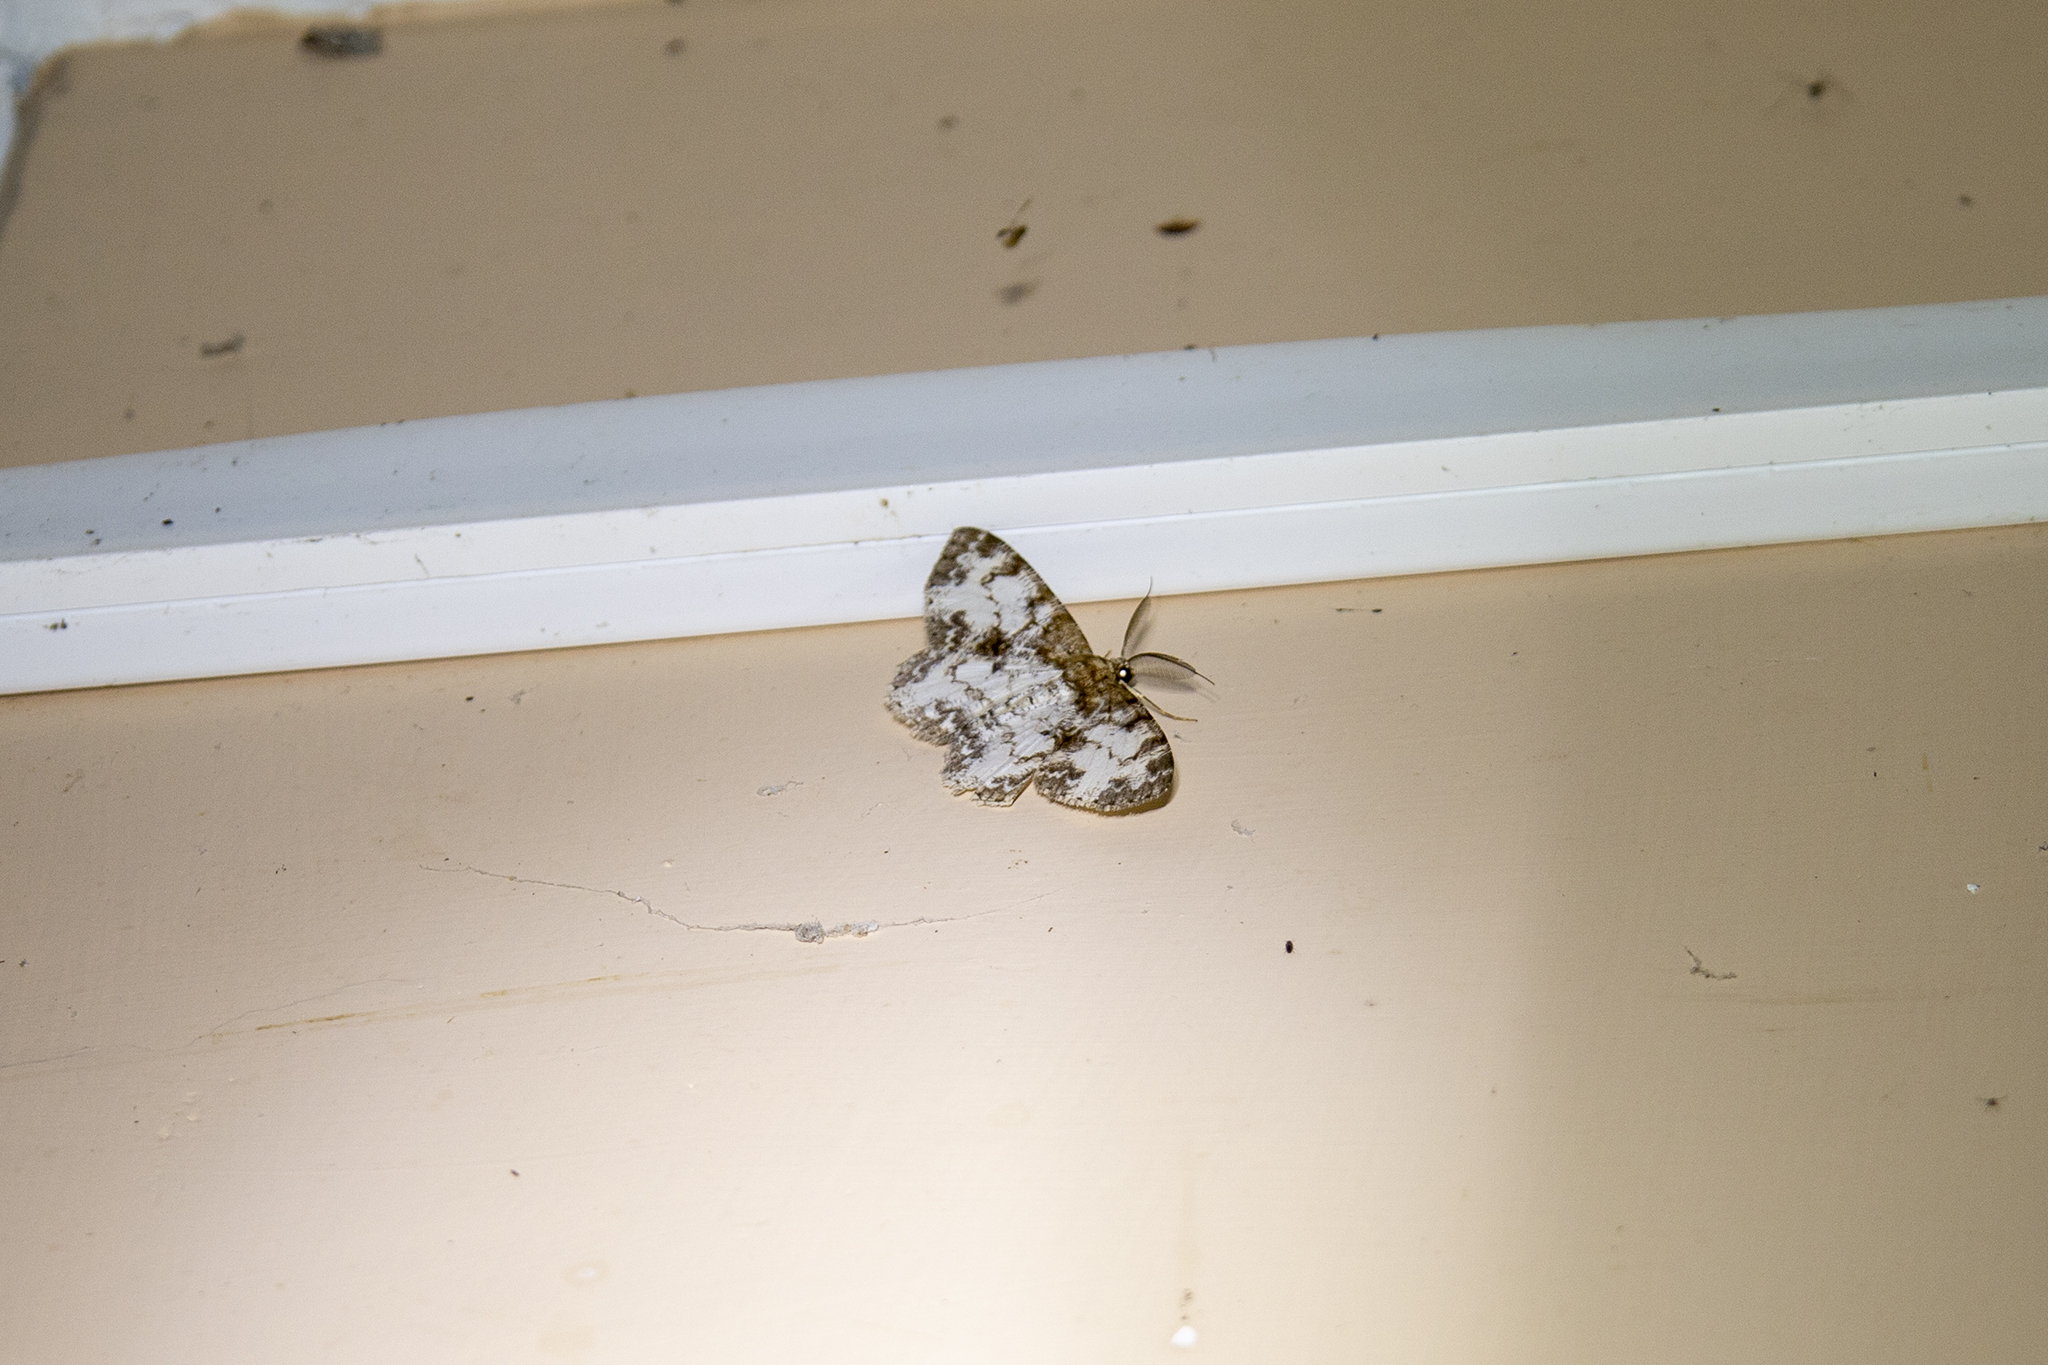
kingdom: Animalia
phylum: Arthropoda
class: Insecta
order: Lepidoptera
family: Geometridae
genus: Hypomecis
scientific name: Hypomecis oblivia
